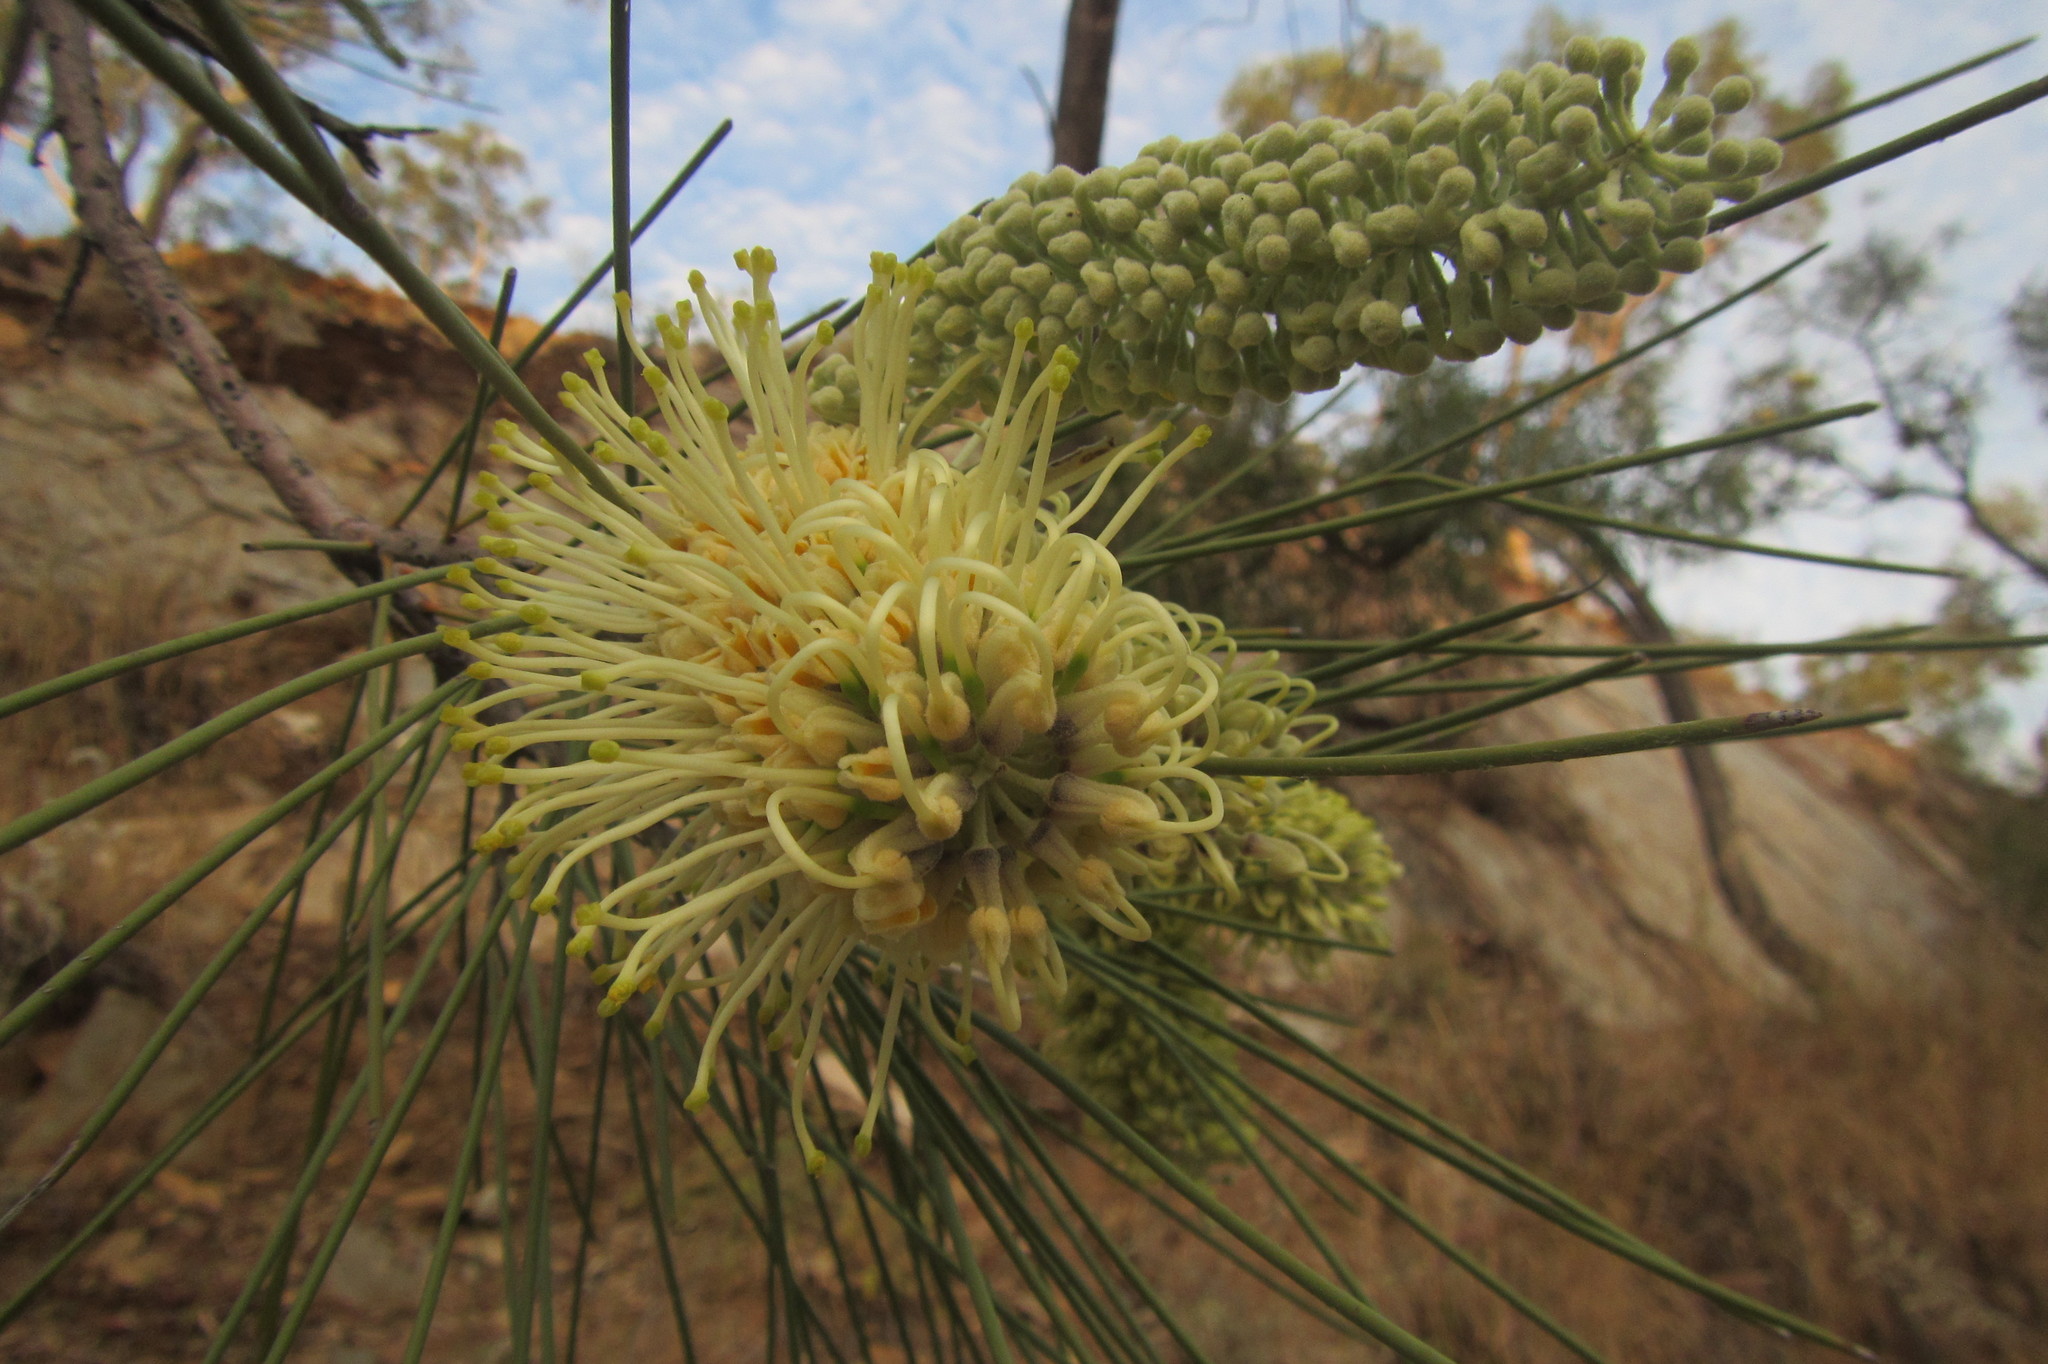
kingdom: Plantae
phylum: Tracheophyta
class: Magnoliopsida
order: Proteales
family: Proteaceae
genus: Hakea
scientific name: Hakea chordophylla
